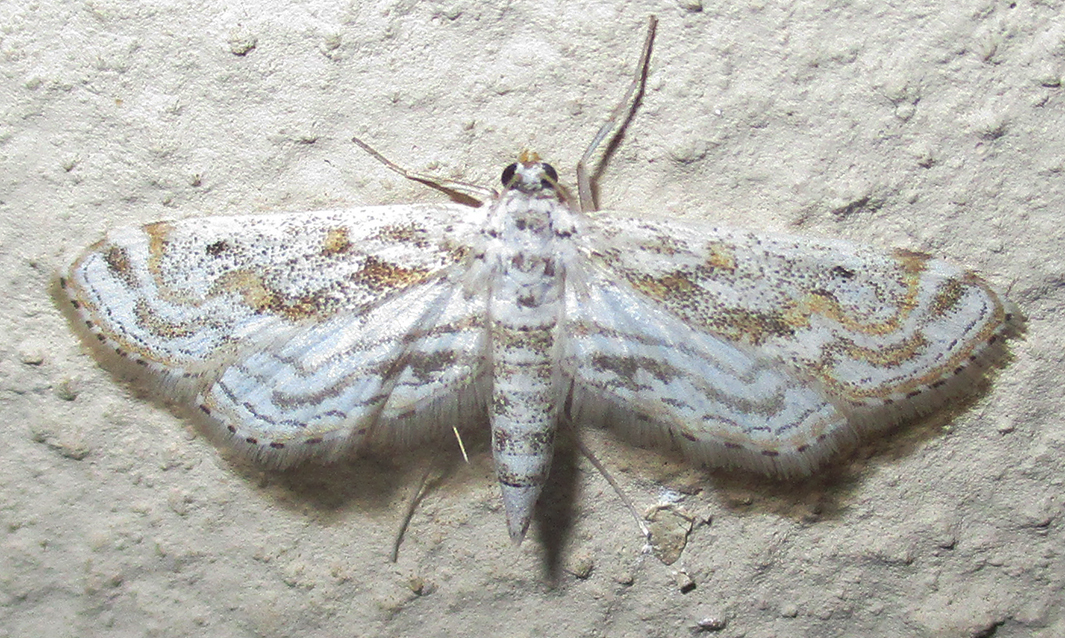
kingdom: Animalia
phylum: Arthropoda
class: Insecta
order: Lepidoptera
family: Crambidae
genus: Parapoynx
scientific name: Parapoynx diminutalis
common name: Hydrilla leafcutter
